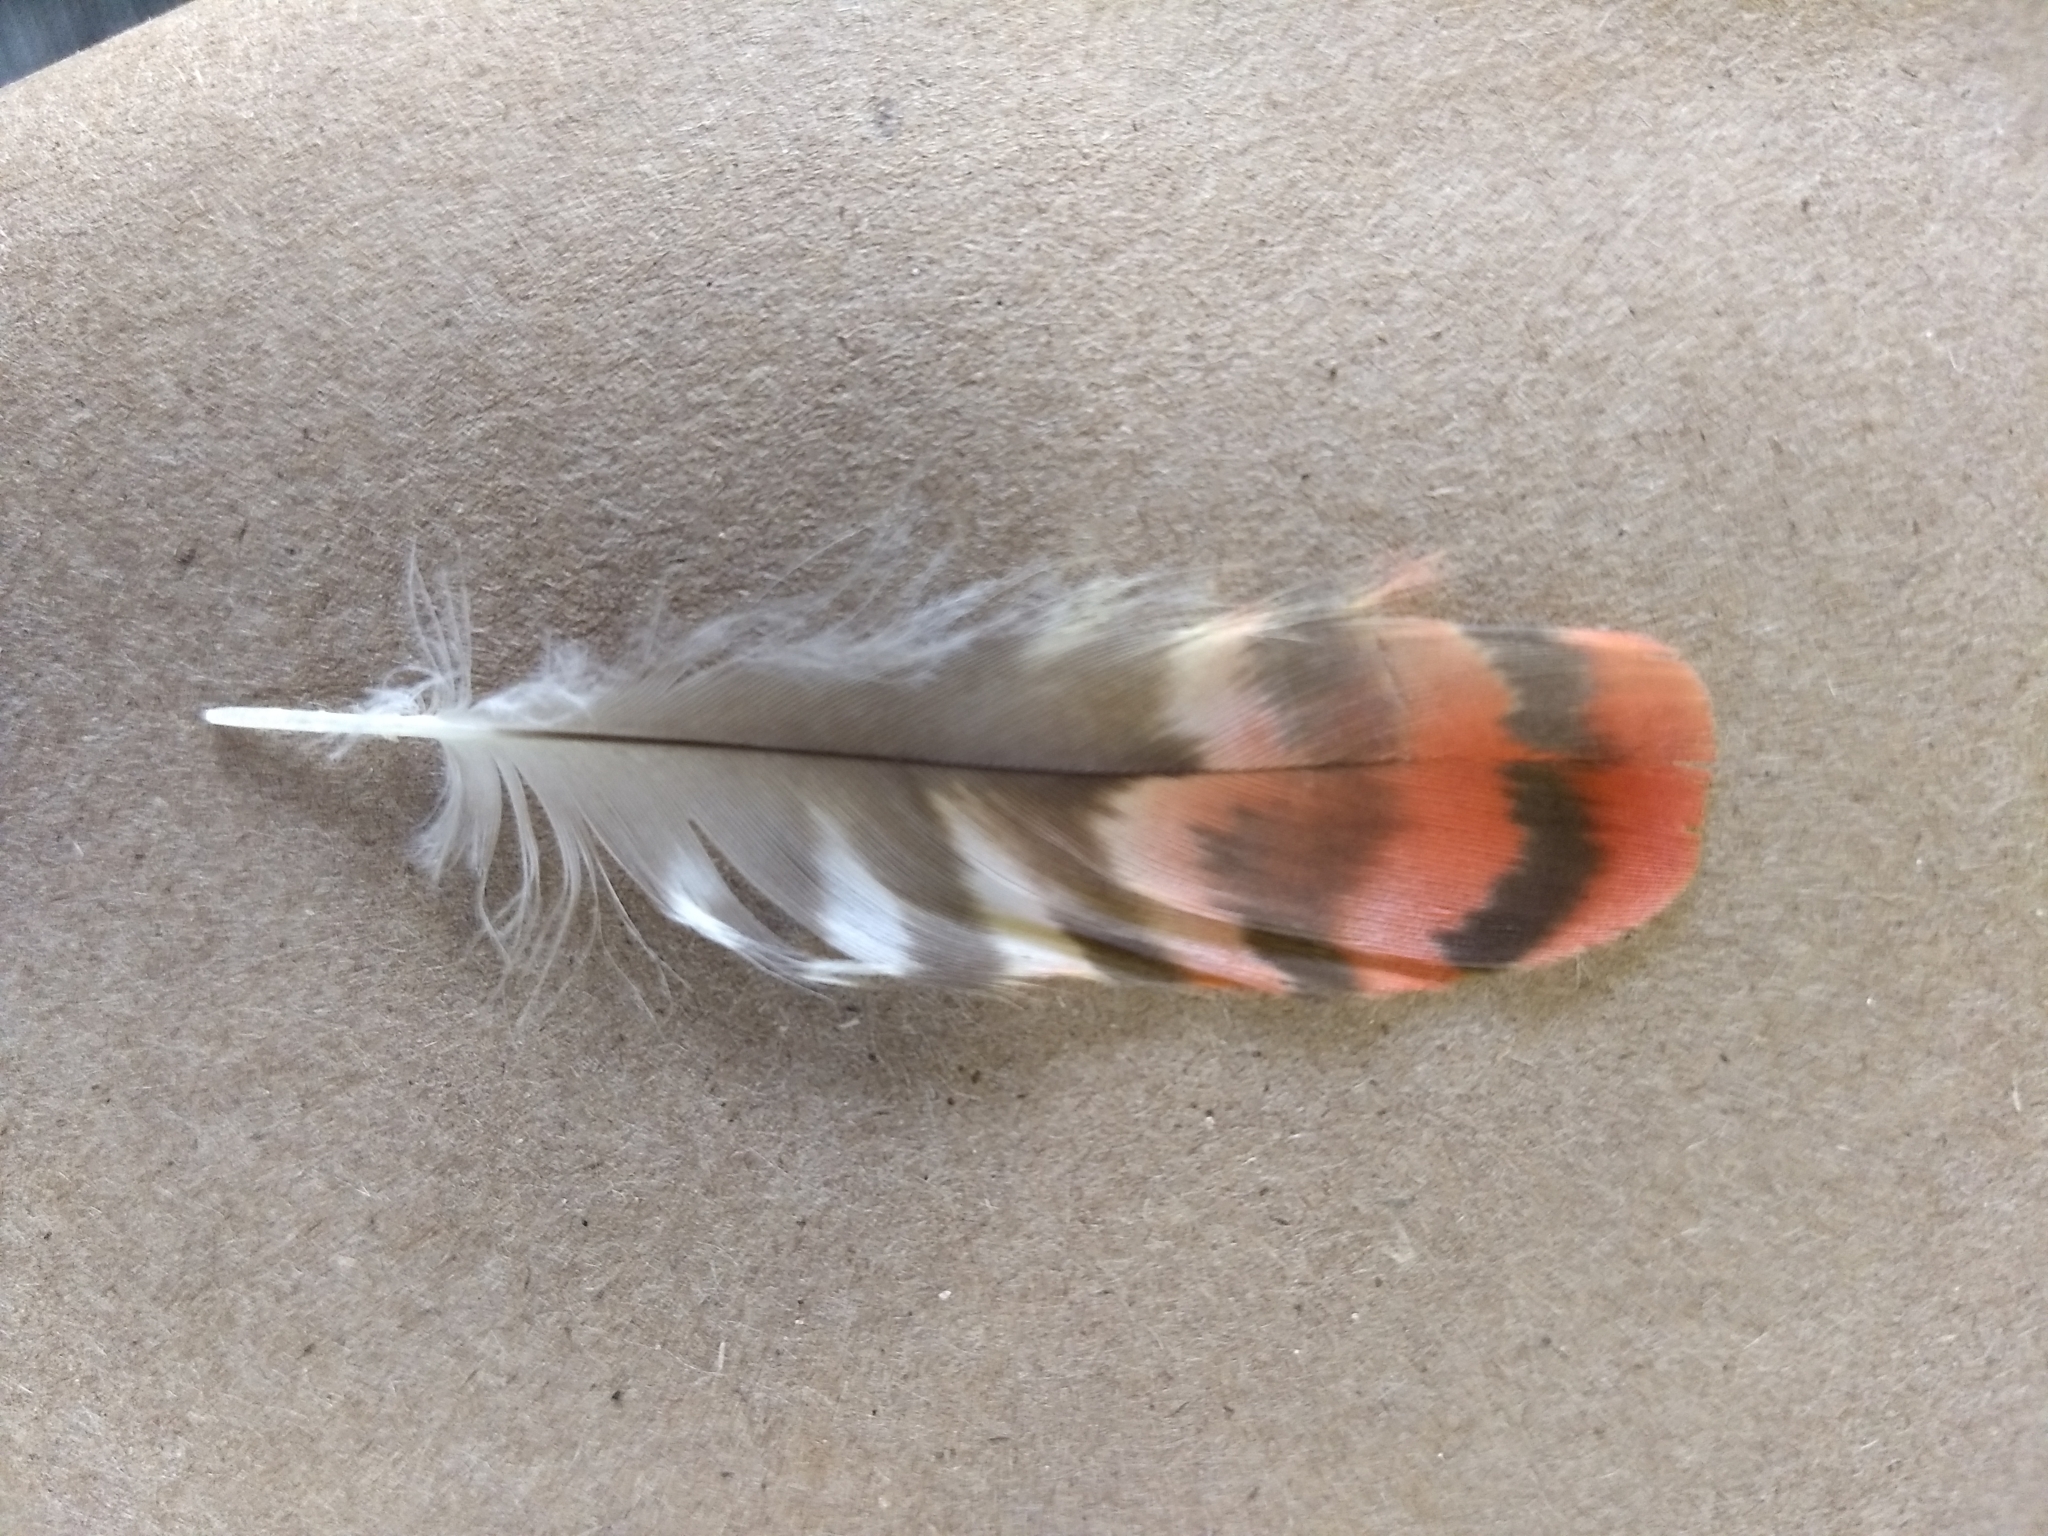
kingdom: Animalia
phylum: Chordata
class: Aves
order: Psittaciformes
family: Psittacidae
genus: Nestor
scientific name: Nestor meridionalis
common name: New zealand kaka
